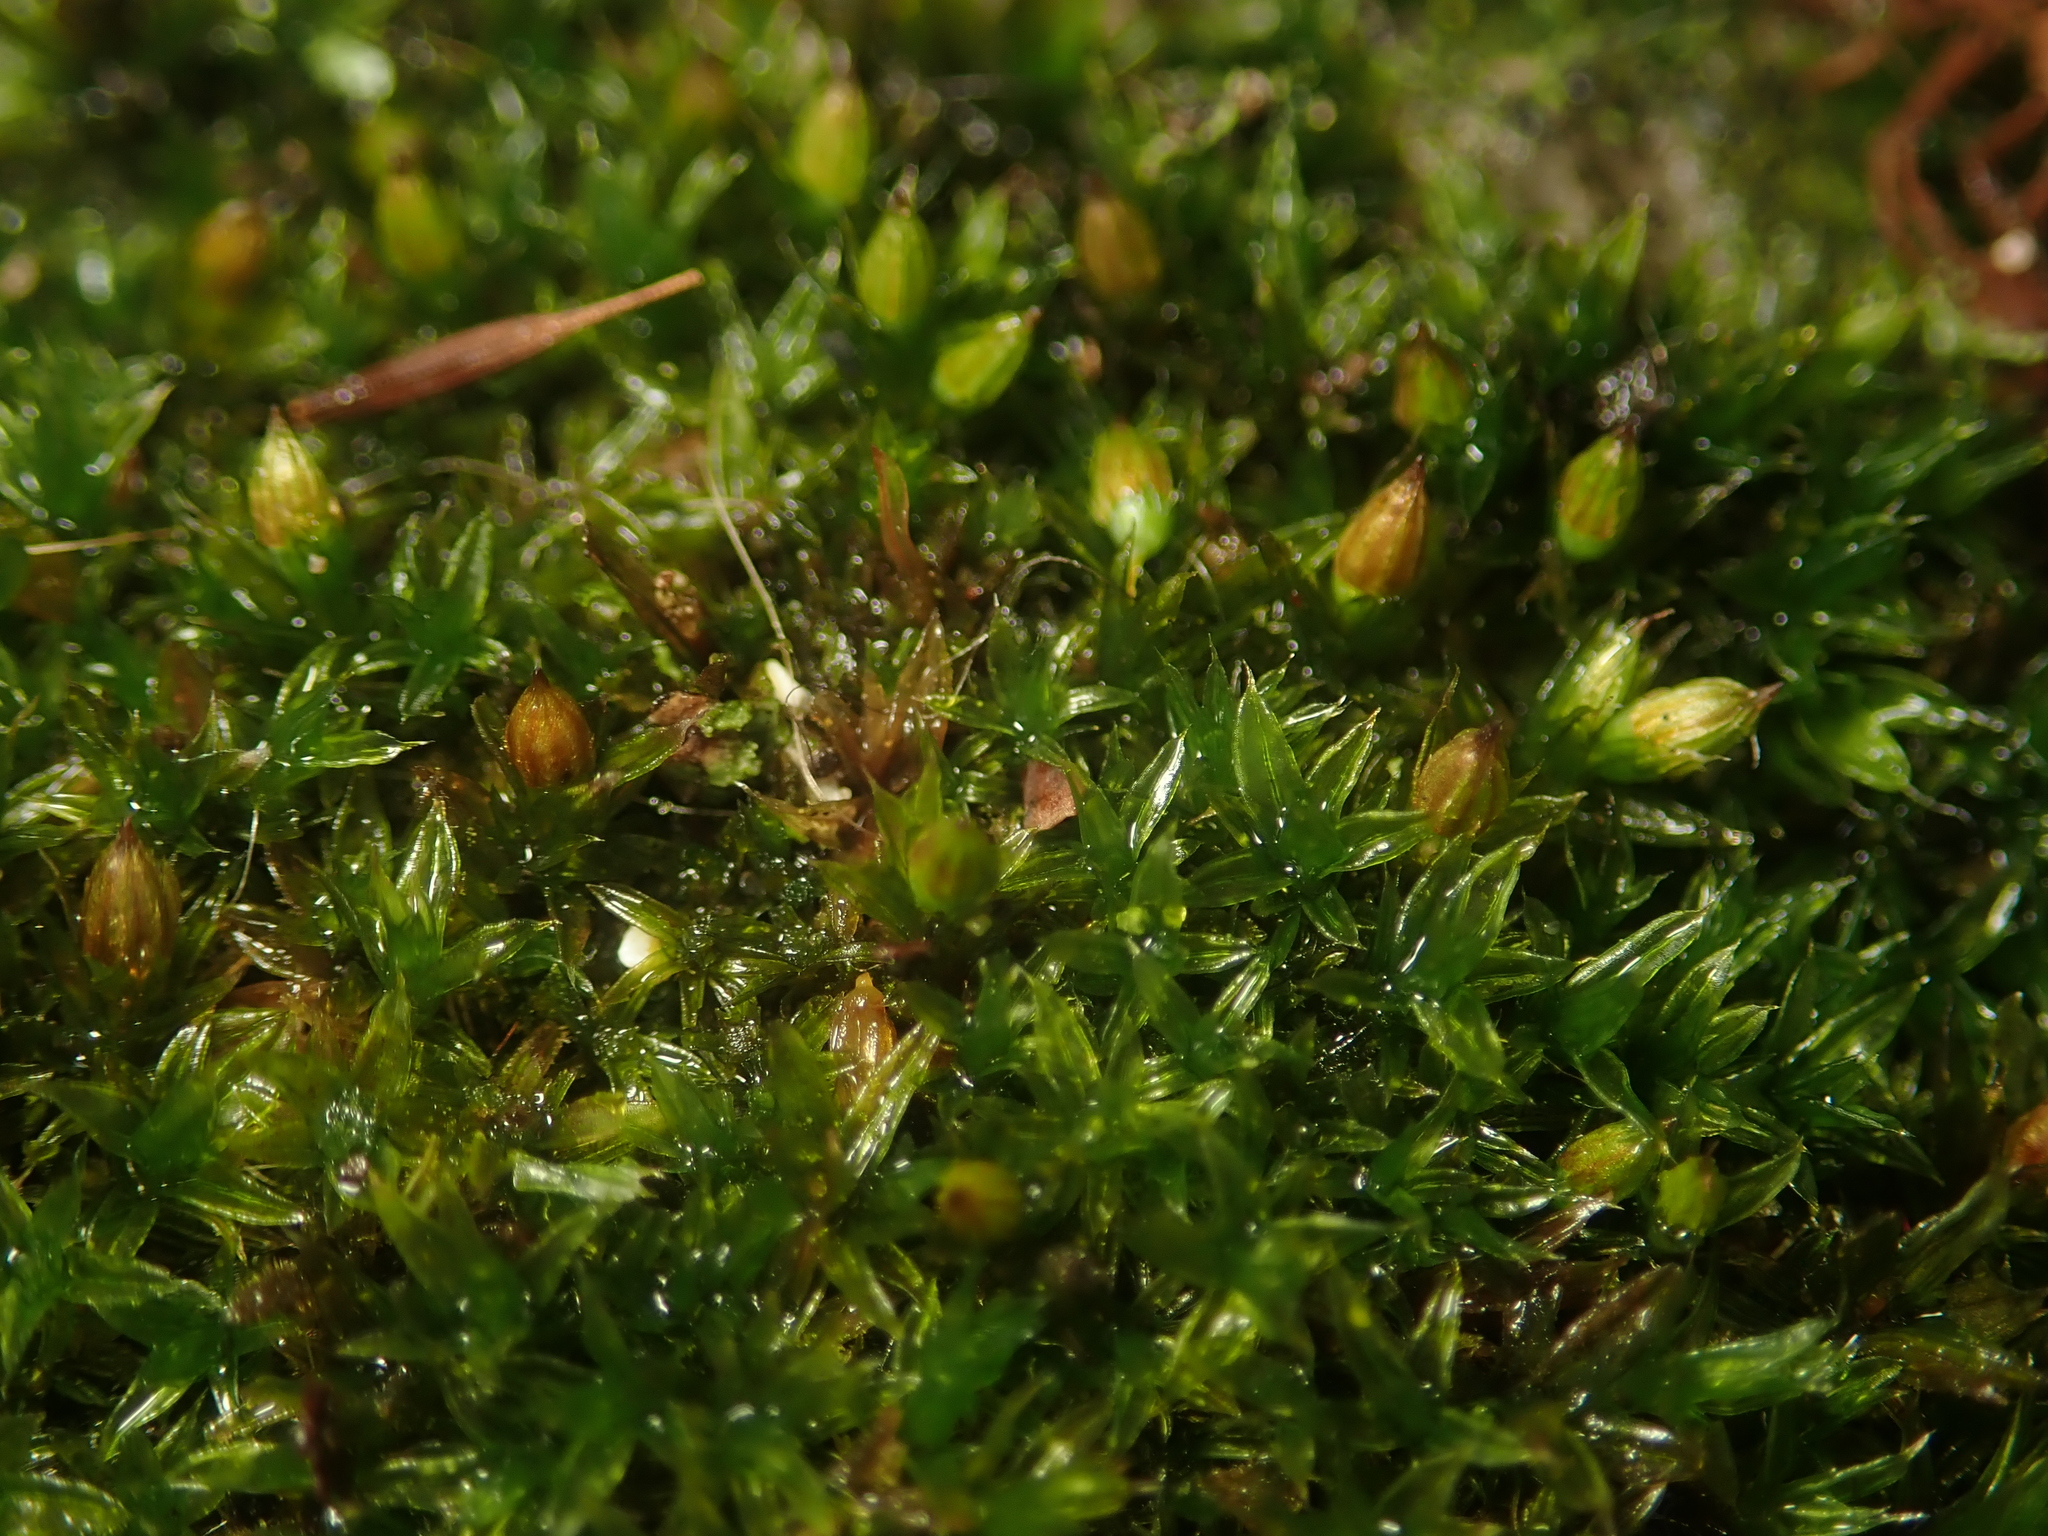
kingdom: Plantae
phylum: Bryophyta
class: Bryopsida
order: Orthotrichales
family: Orthotrichaceae
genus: Orthotrichum
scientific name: Orthotrichum diaphanum
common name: White-tipped bristle-moss
